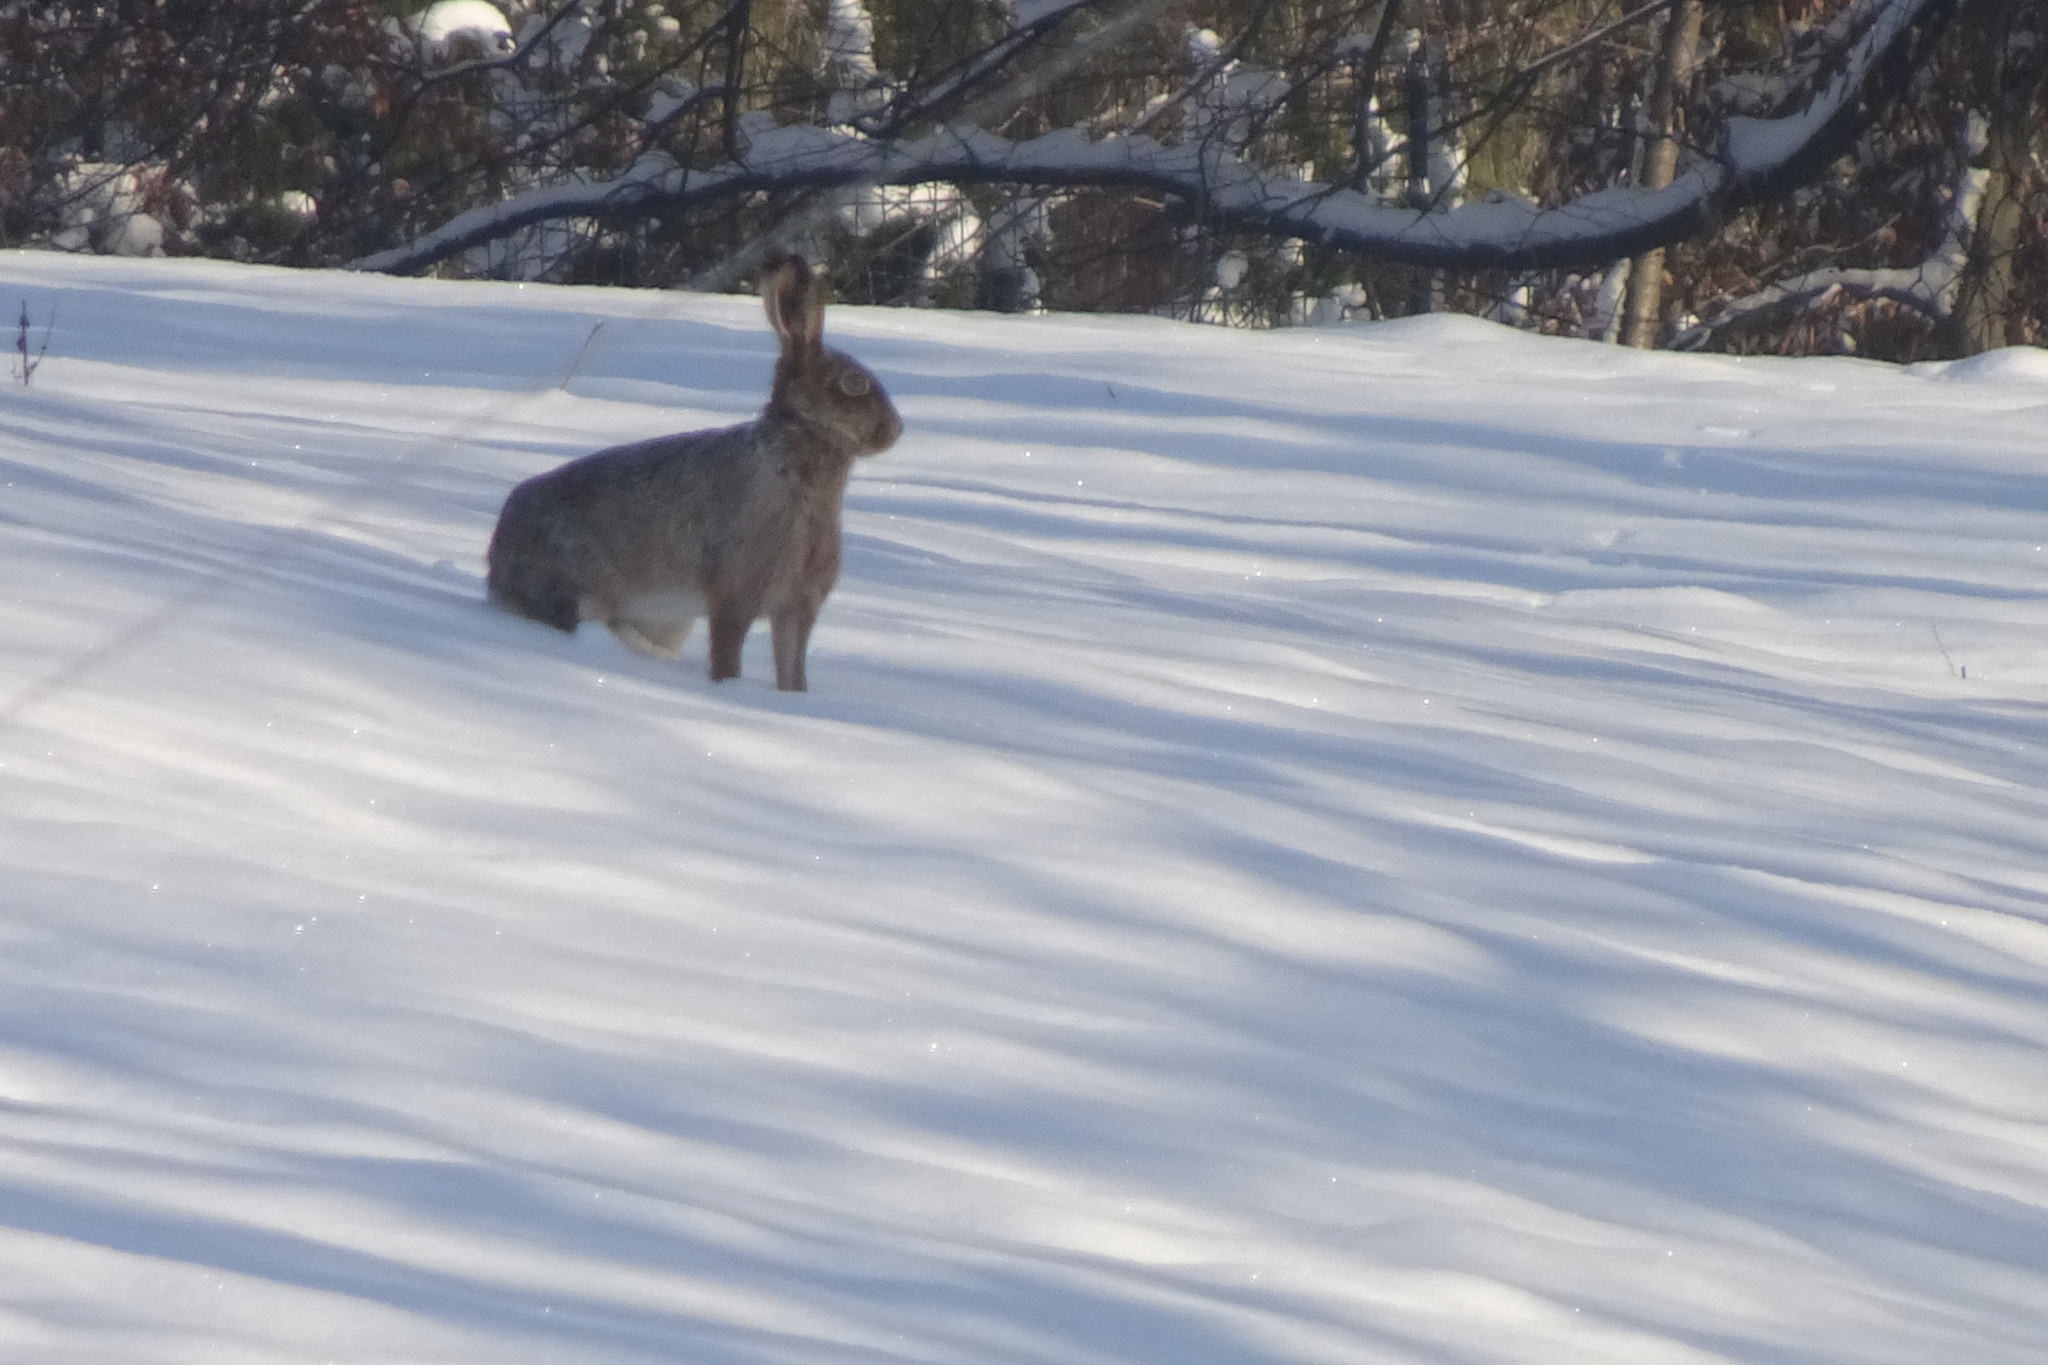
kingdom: Animalia
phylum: Chordata
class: Mammalia
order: Lagomorpha
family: Leporidae
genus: Lepus
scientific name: Lepus europaeus
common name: European hare
